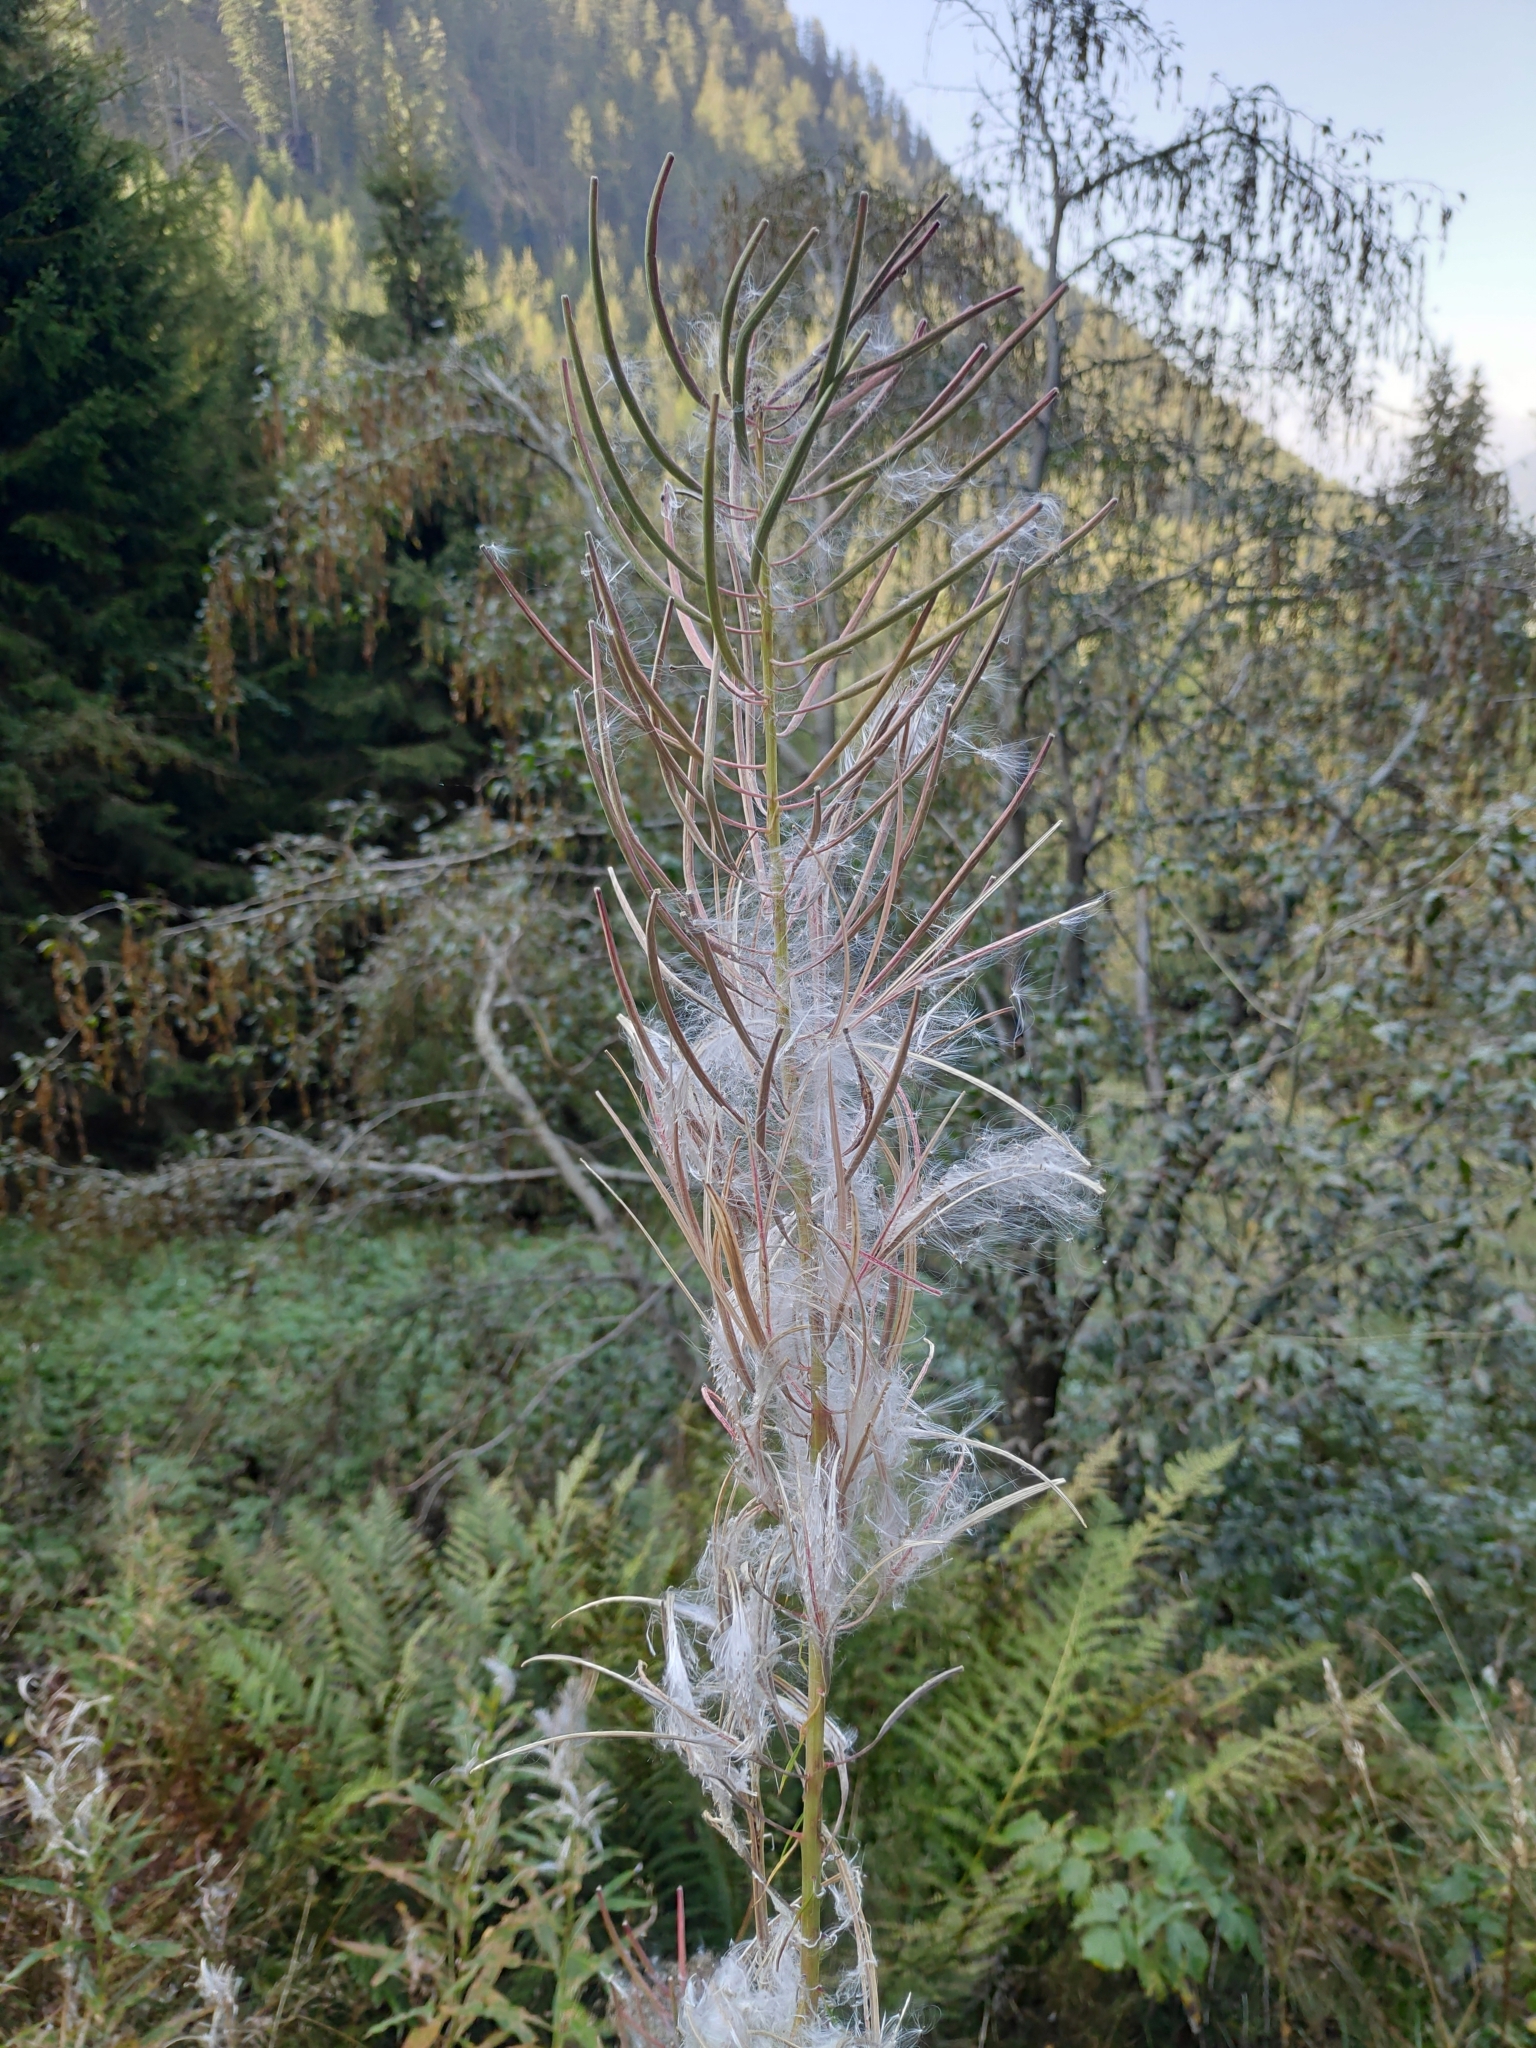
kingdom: Plantae
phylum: Tracheophyta
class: Magnoliopsida
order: Myrtales
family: Onagraceae
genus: Chamaenerion
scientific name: Chamaenerion angustifolium
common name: Fireweed
